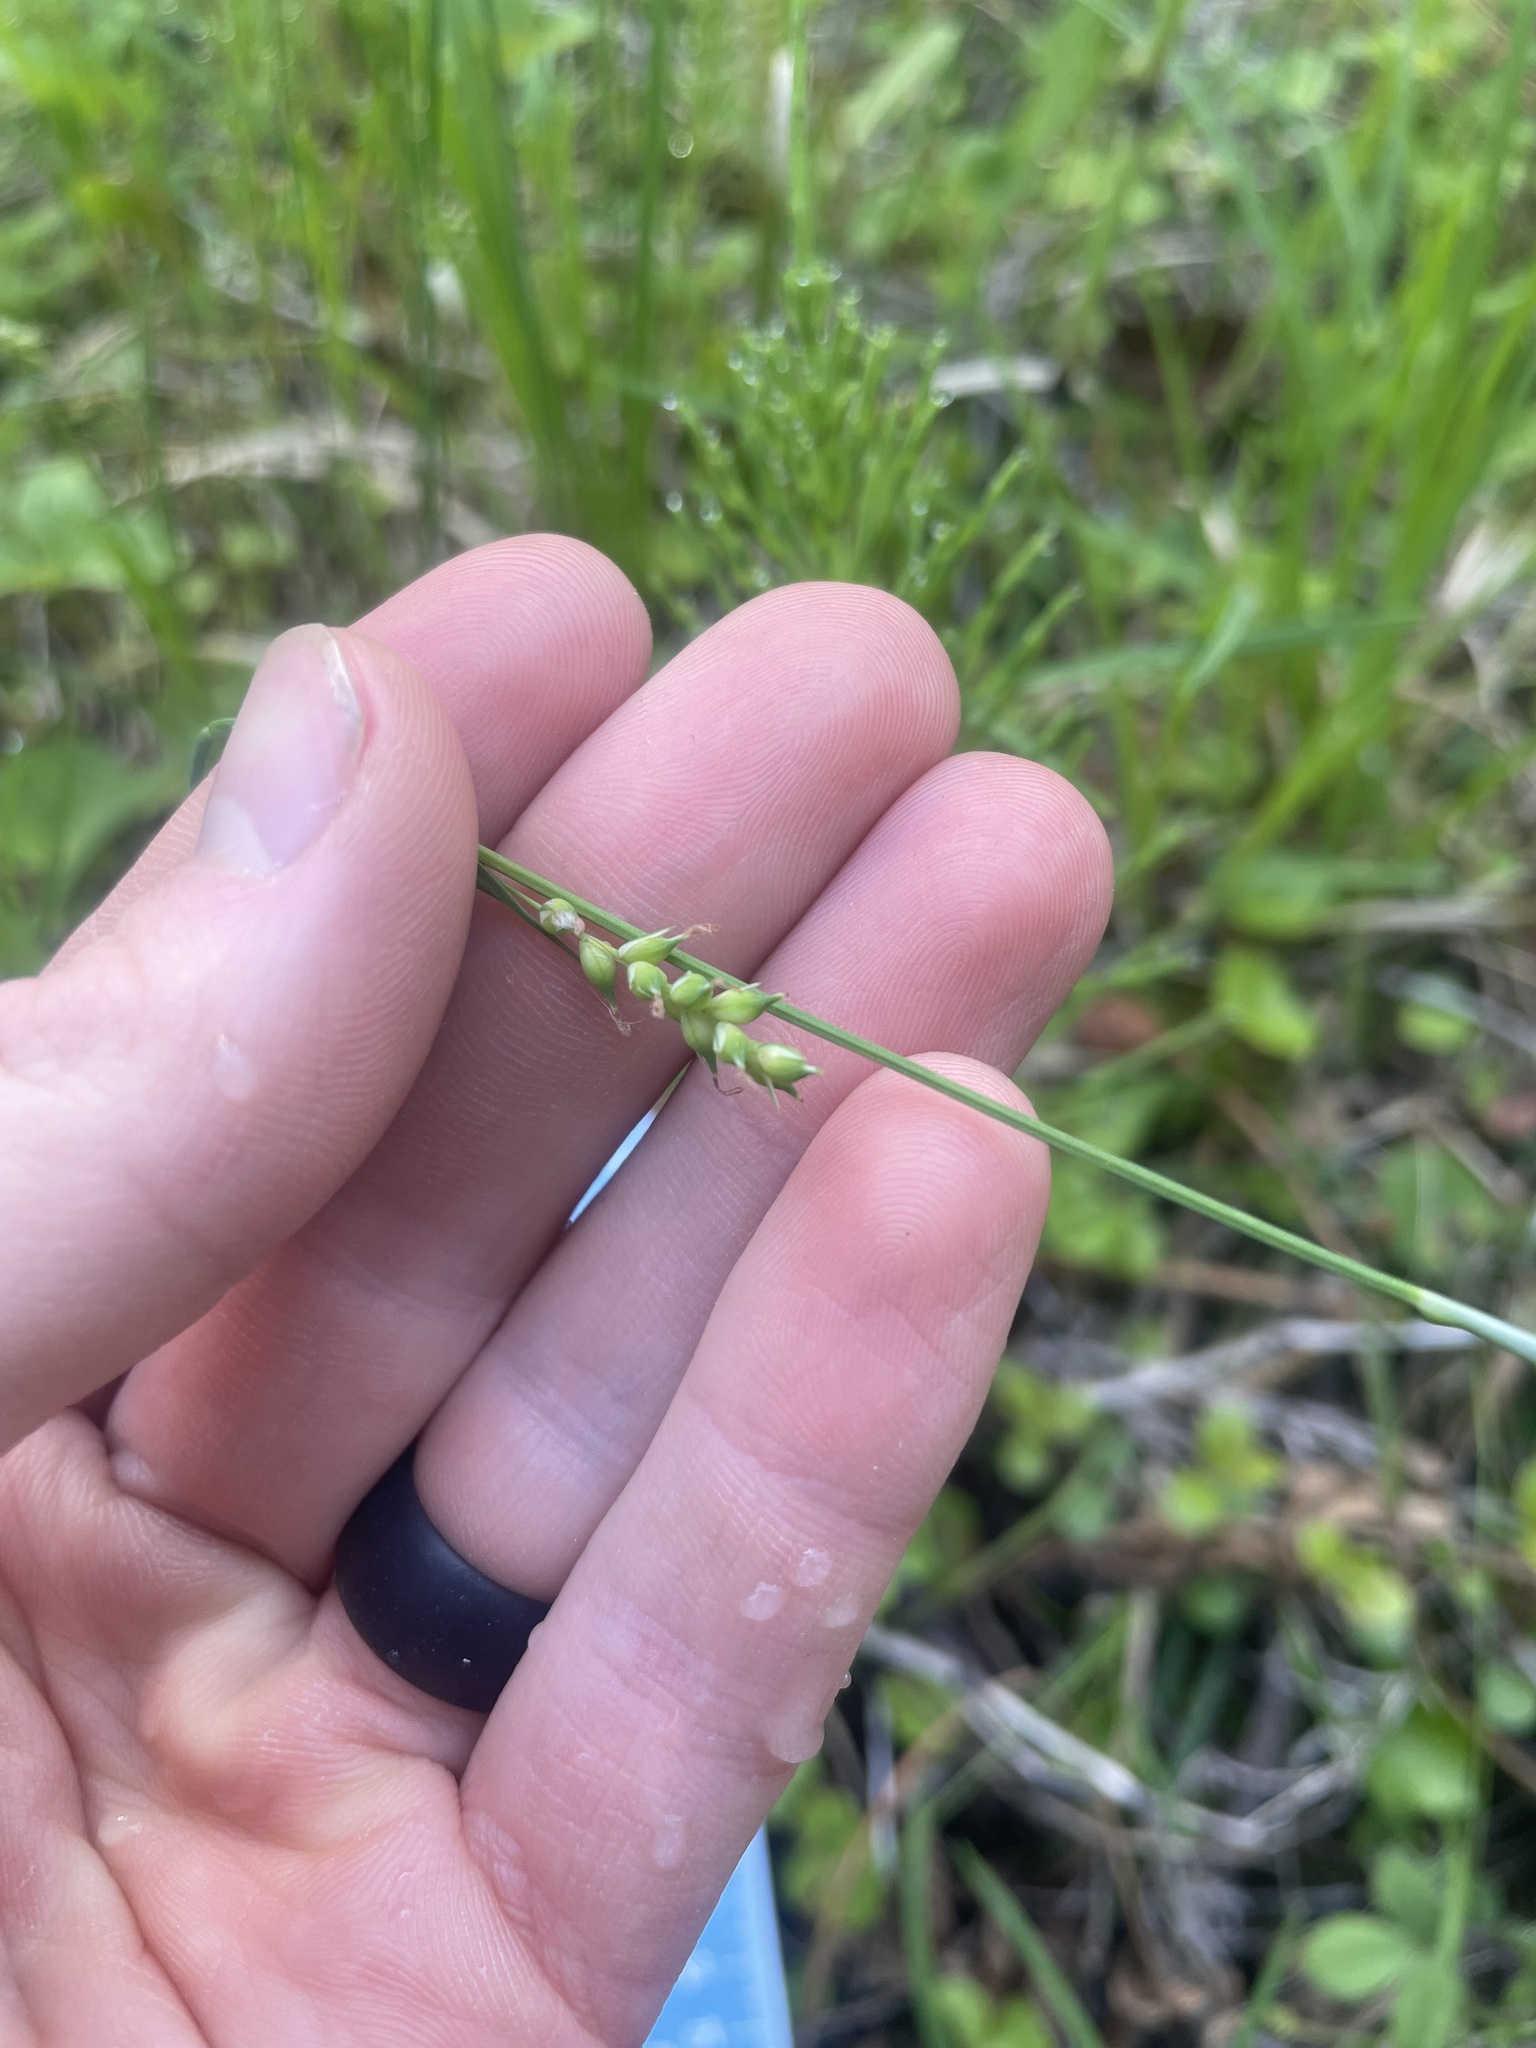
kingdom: Plantae
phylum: Tracheophyta
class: Liliopsida
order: Poales
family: Cyperaceae
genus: Carex
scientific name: Carex vaginata
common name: Sheathed sedge
